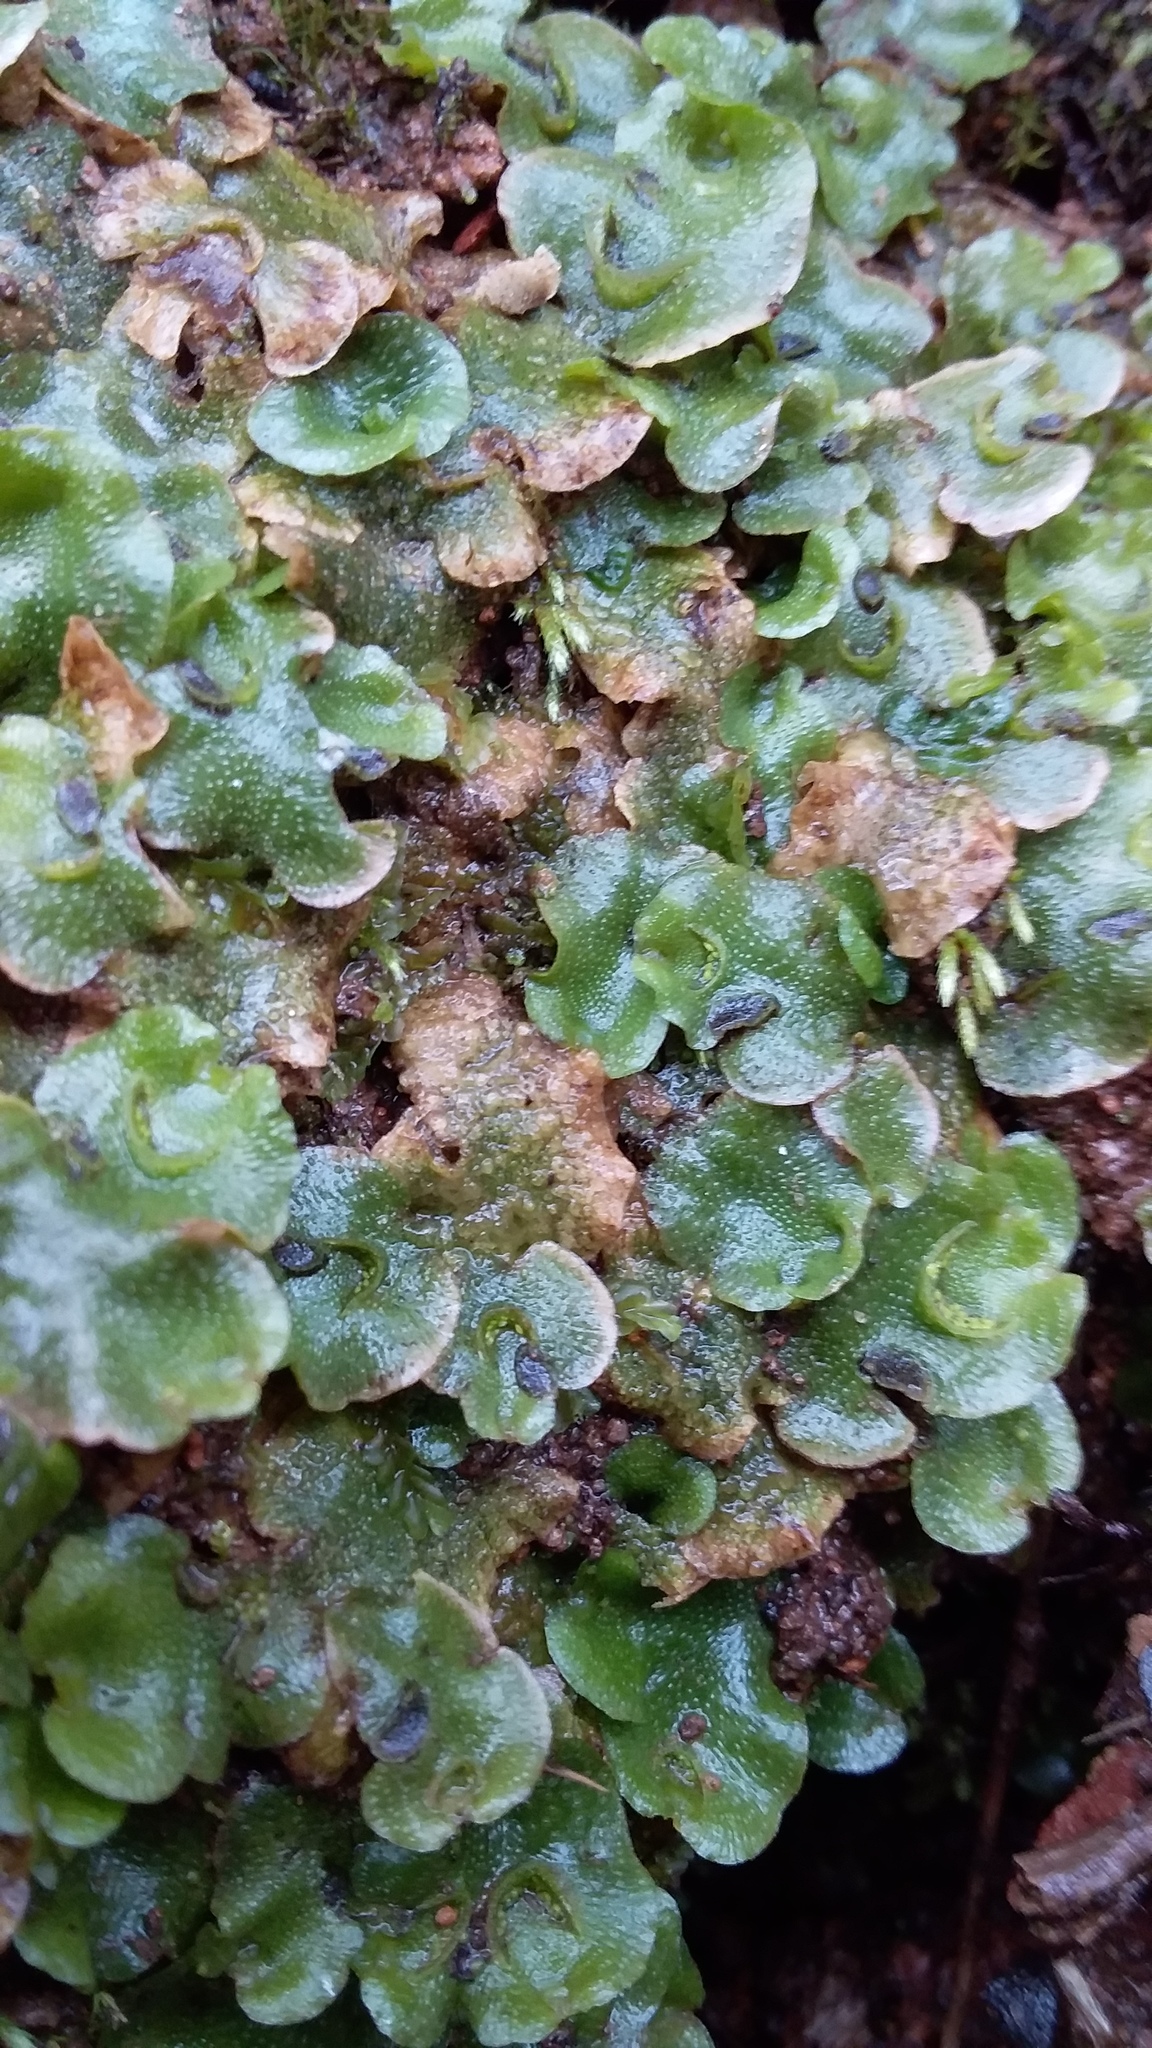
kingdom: Plantae
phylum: Marchantiophyta
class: Marchantiopsida
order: Lunulariales
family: Lunulariaceae
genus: Lunularia
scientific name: Lunularia cruciata
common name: Crescent-cup liverwort
